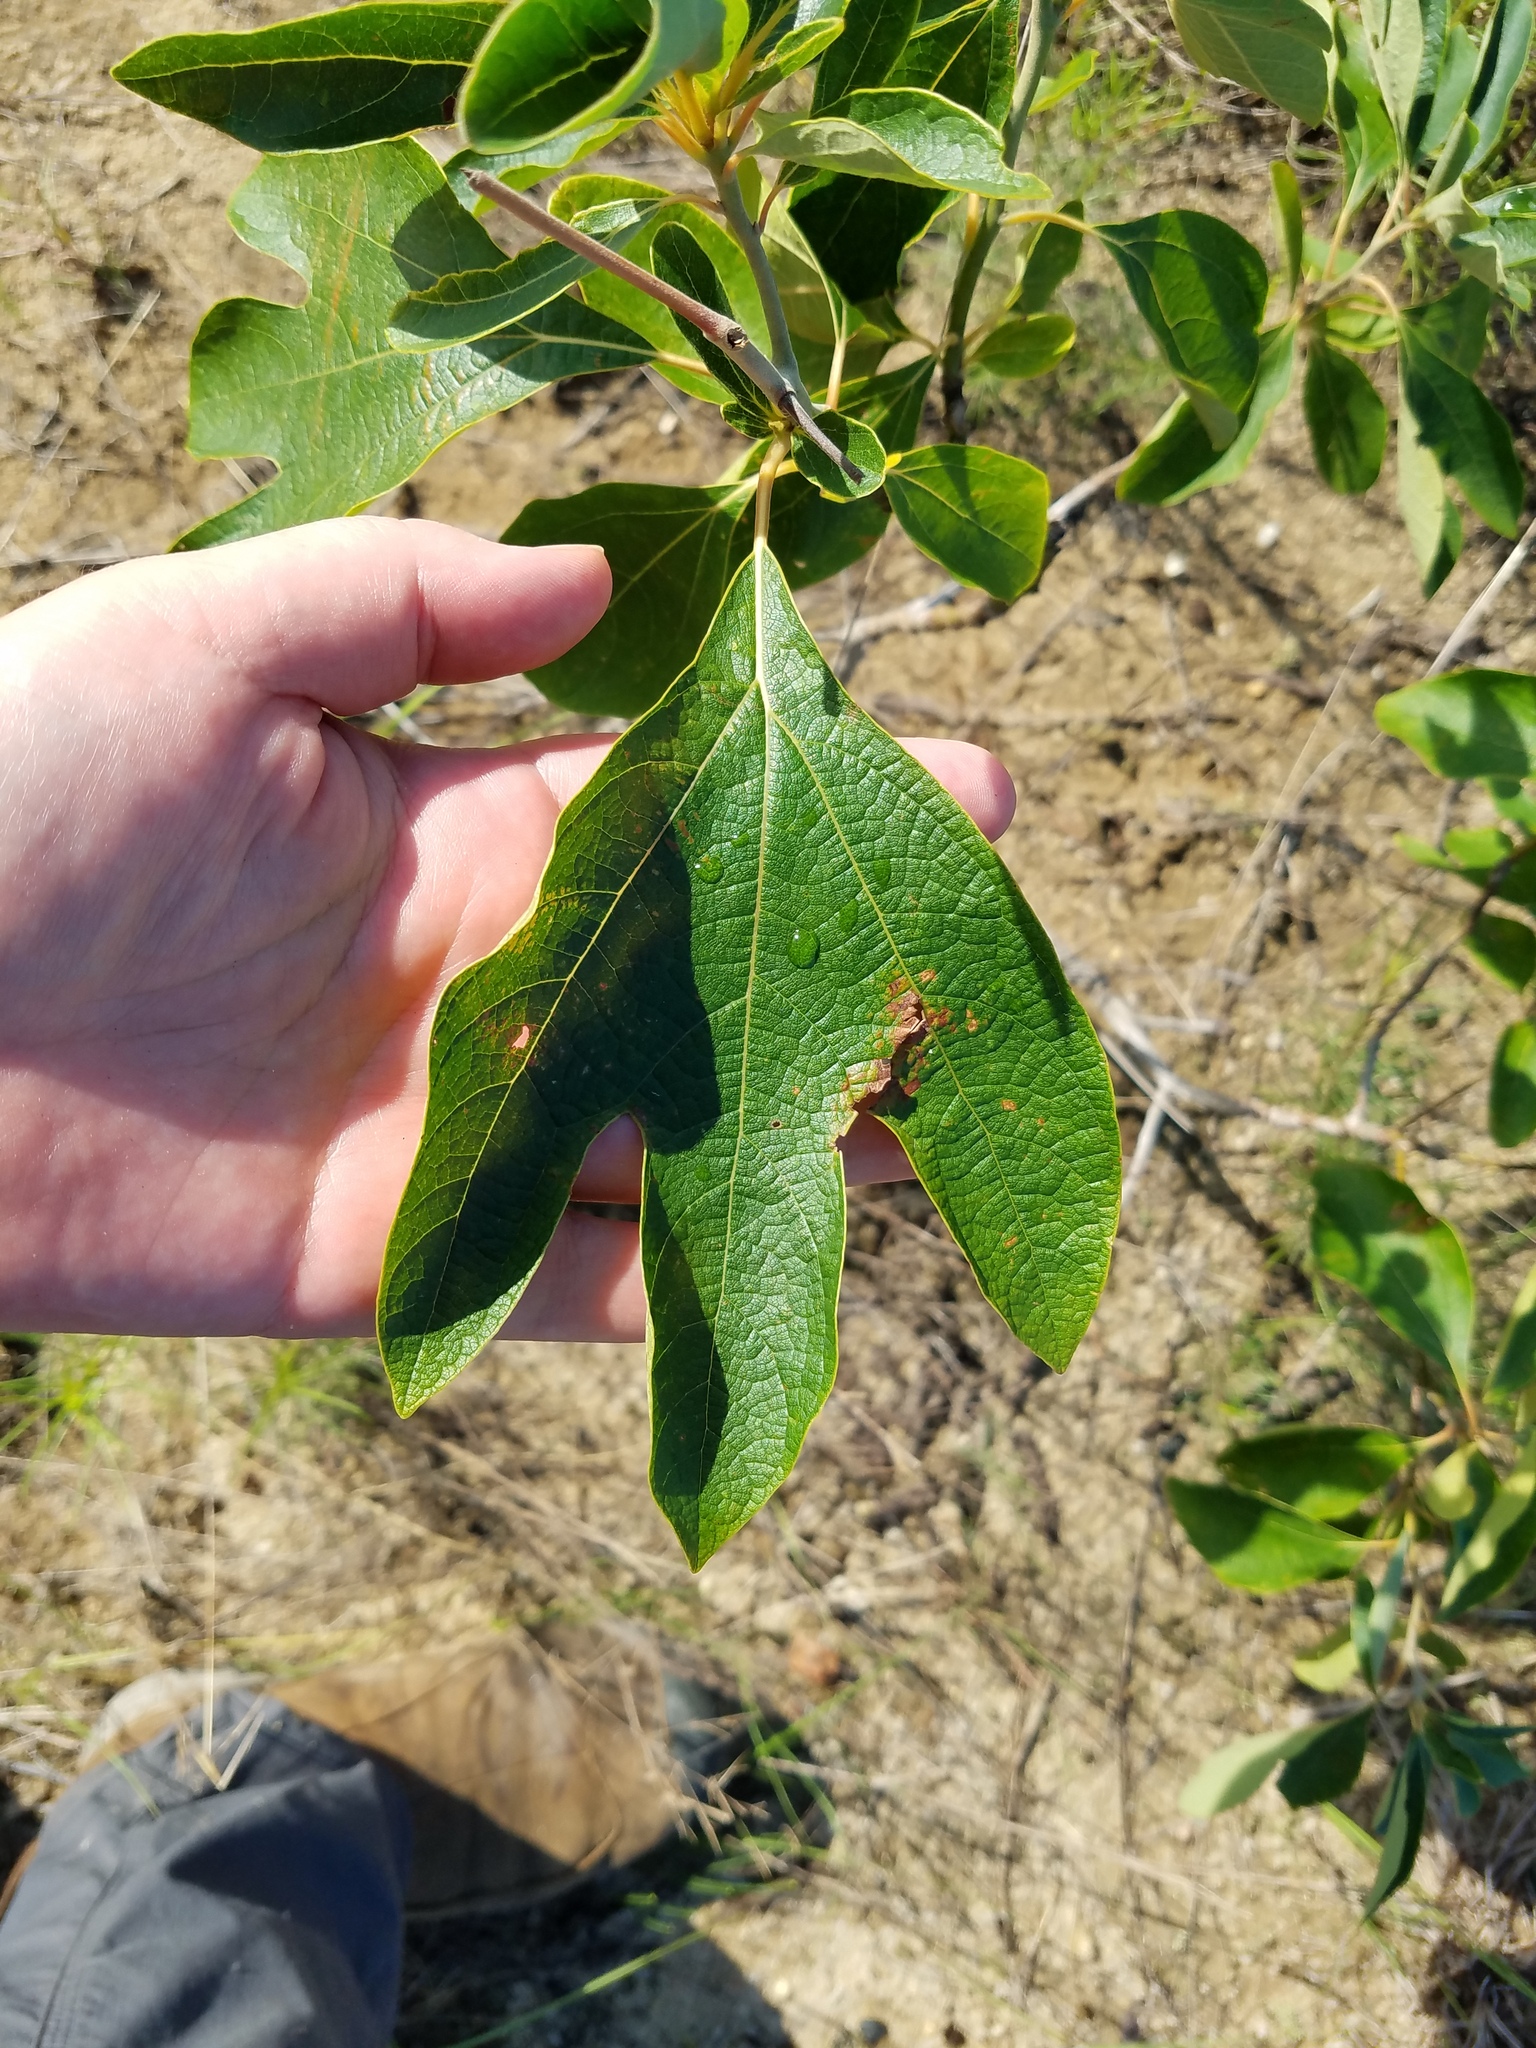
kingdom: Plantae
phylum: Tracheophyta
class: Magnoliopsida
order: Laurales
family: Lauraceae
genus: Sassafras
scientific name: Sassafras albidum
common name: Sassafras
